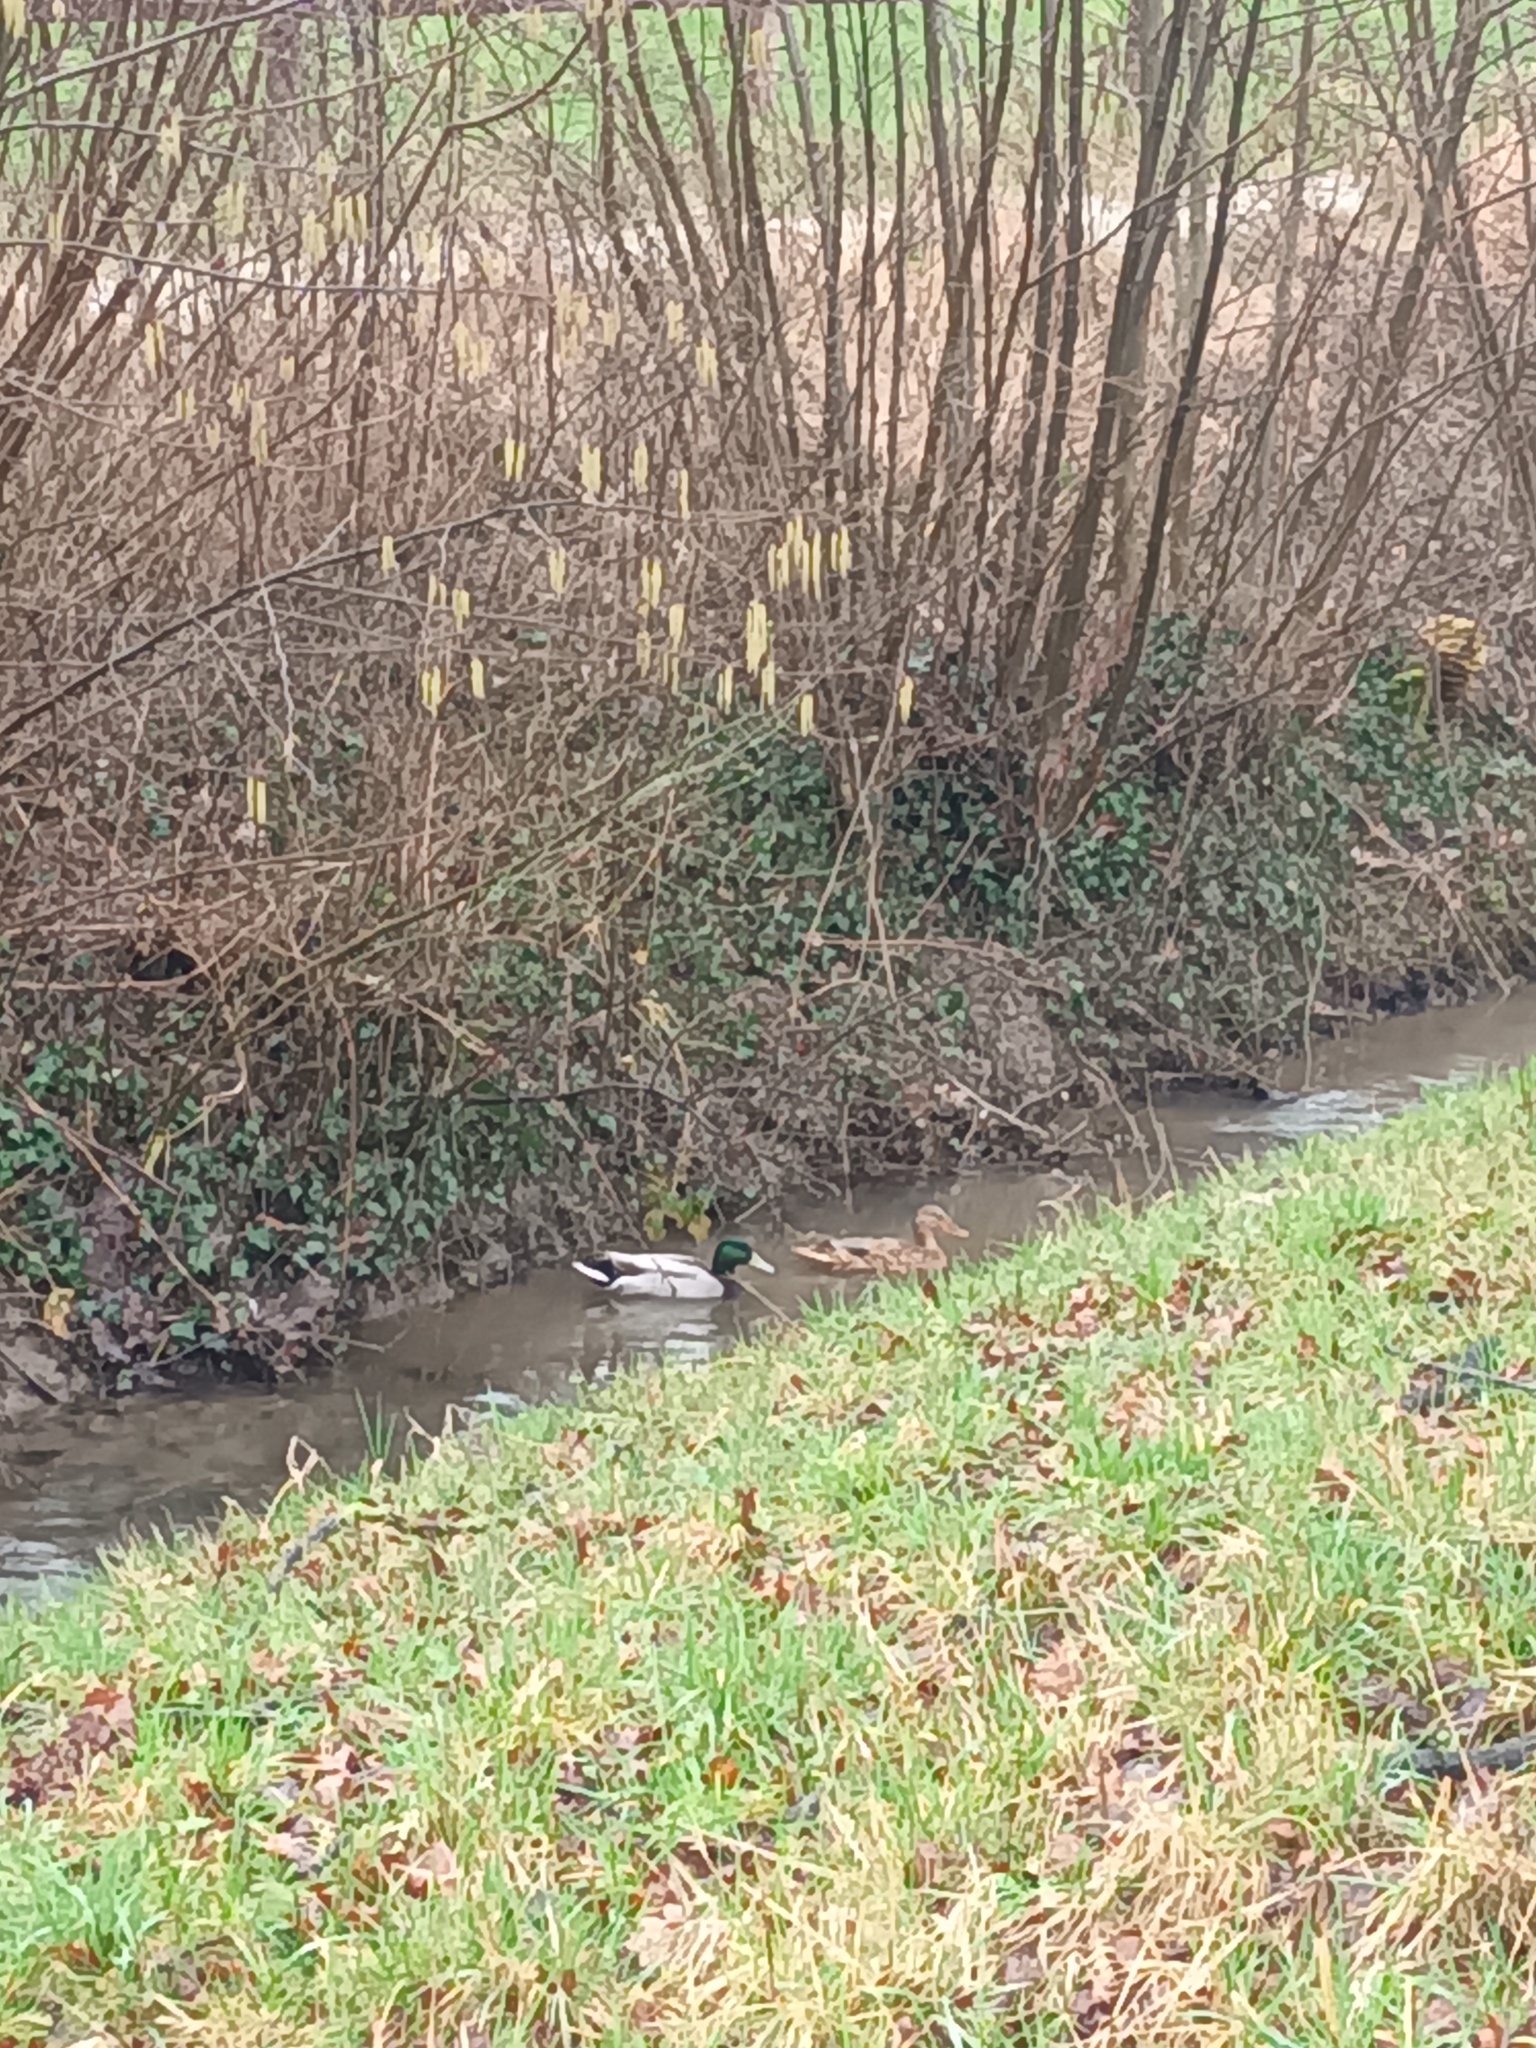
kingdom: Animalia
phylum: Chordata
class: Aves
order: Anseriformes
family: Anatidae
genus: Anas
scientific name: Anas platyrhynchos
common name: Mallard
